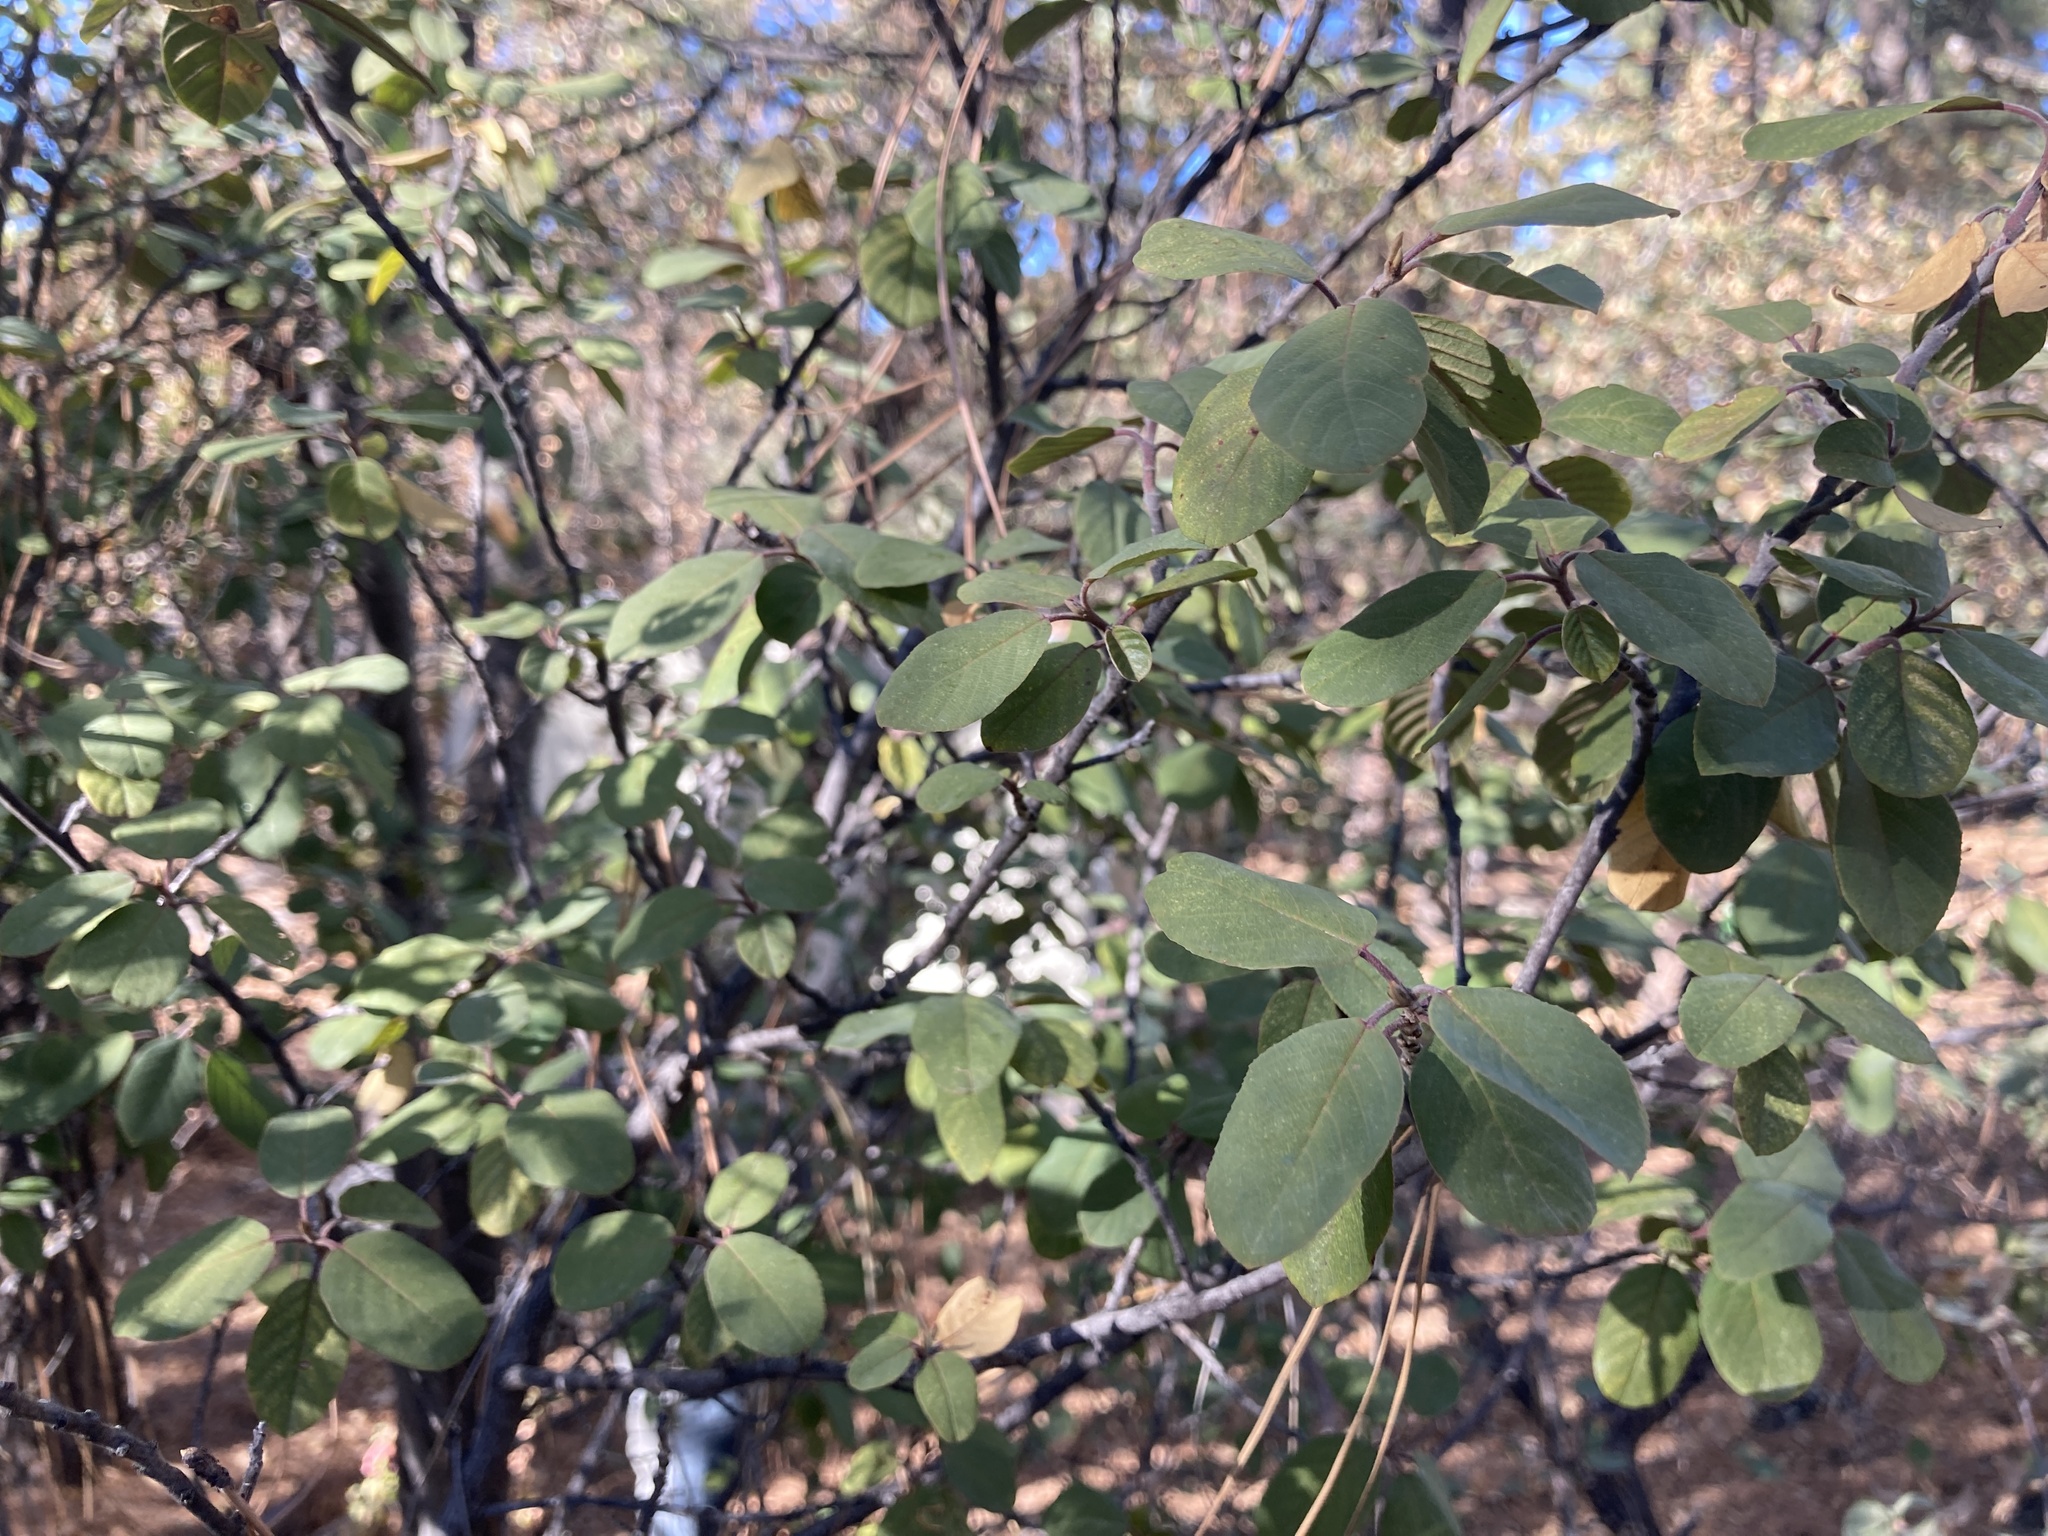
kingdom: Plantae
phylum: Tracheophyta
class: Magnoliopsida
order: Rosales
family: Rhamnaceae
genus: Frangula
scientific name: Frangula californica
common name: California buckthorn
